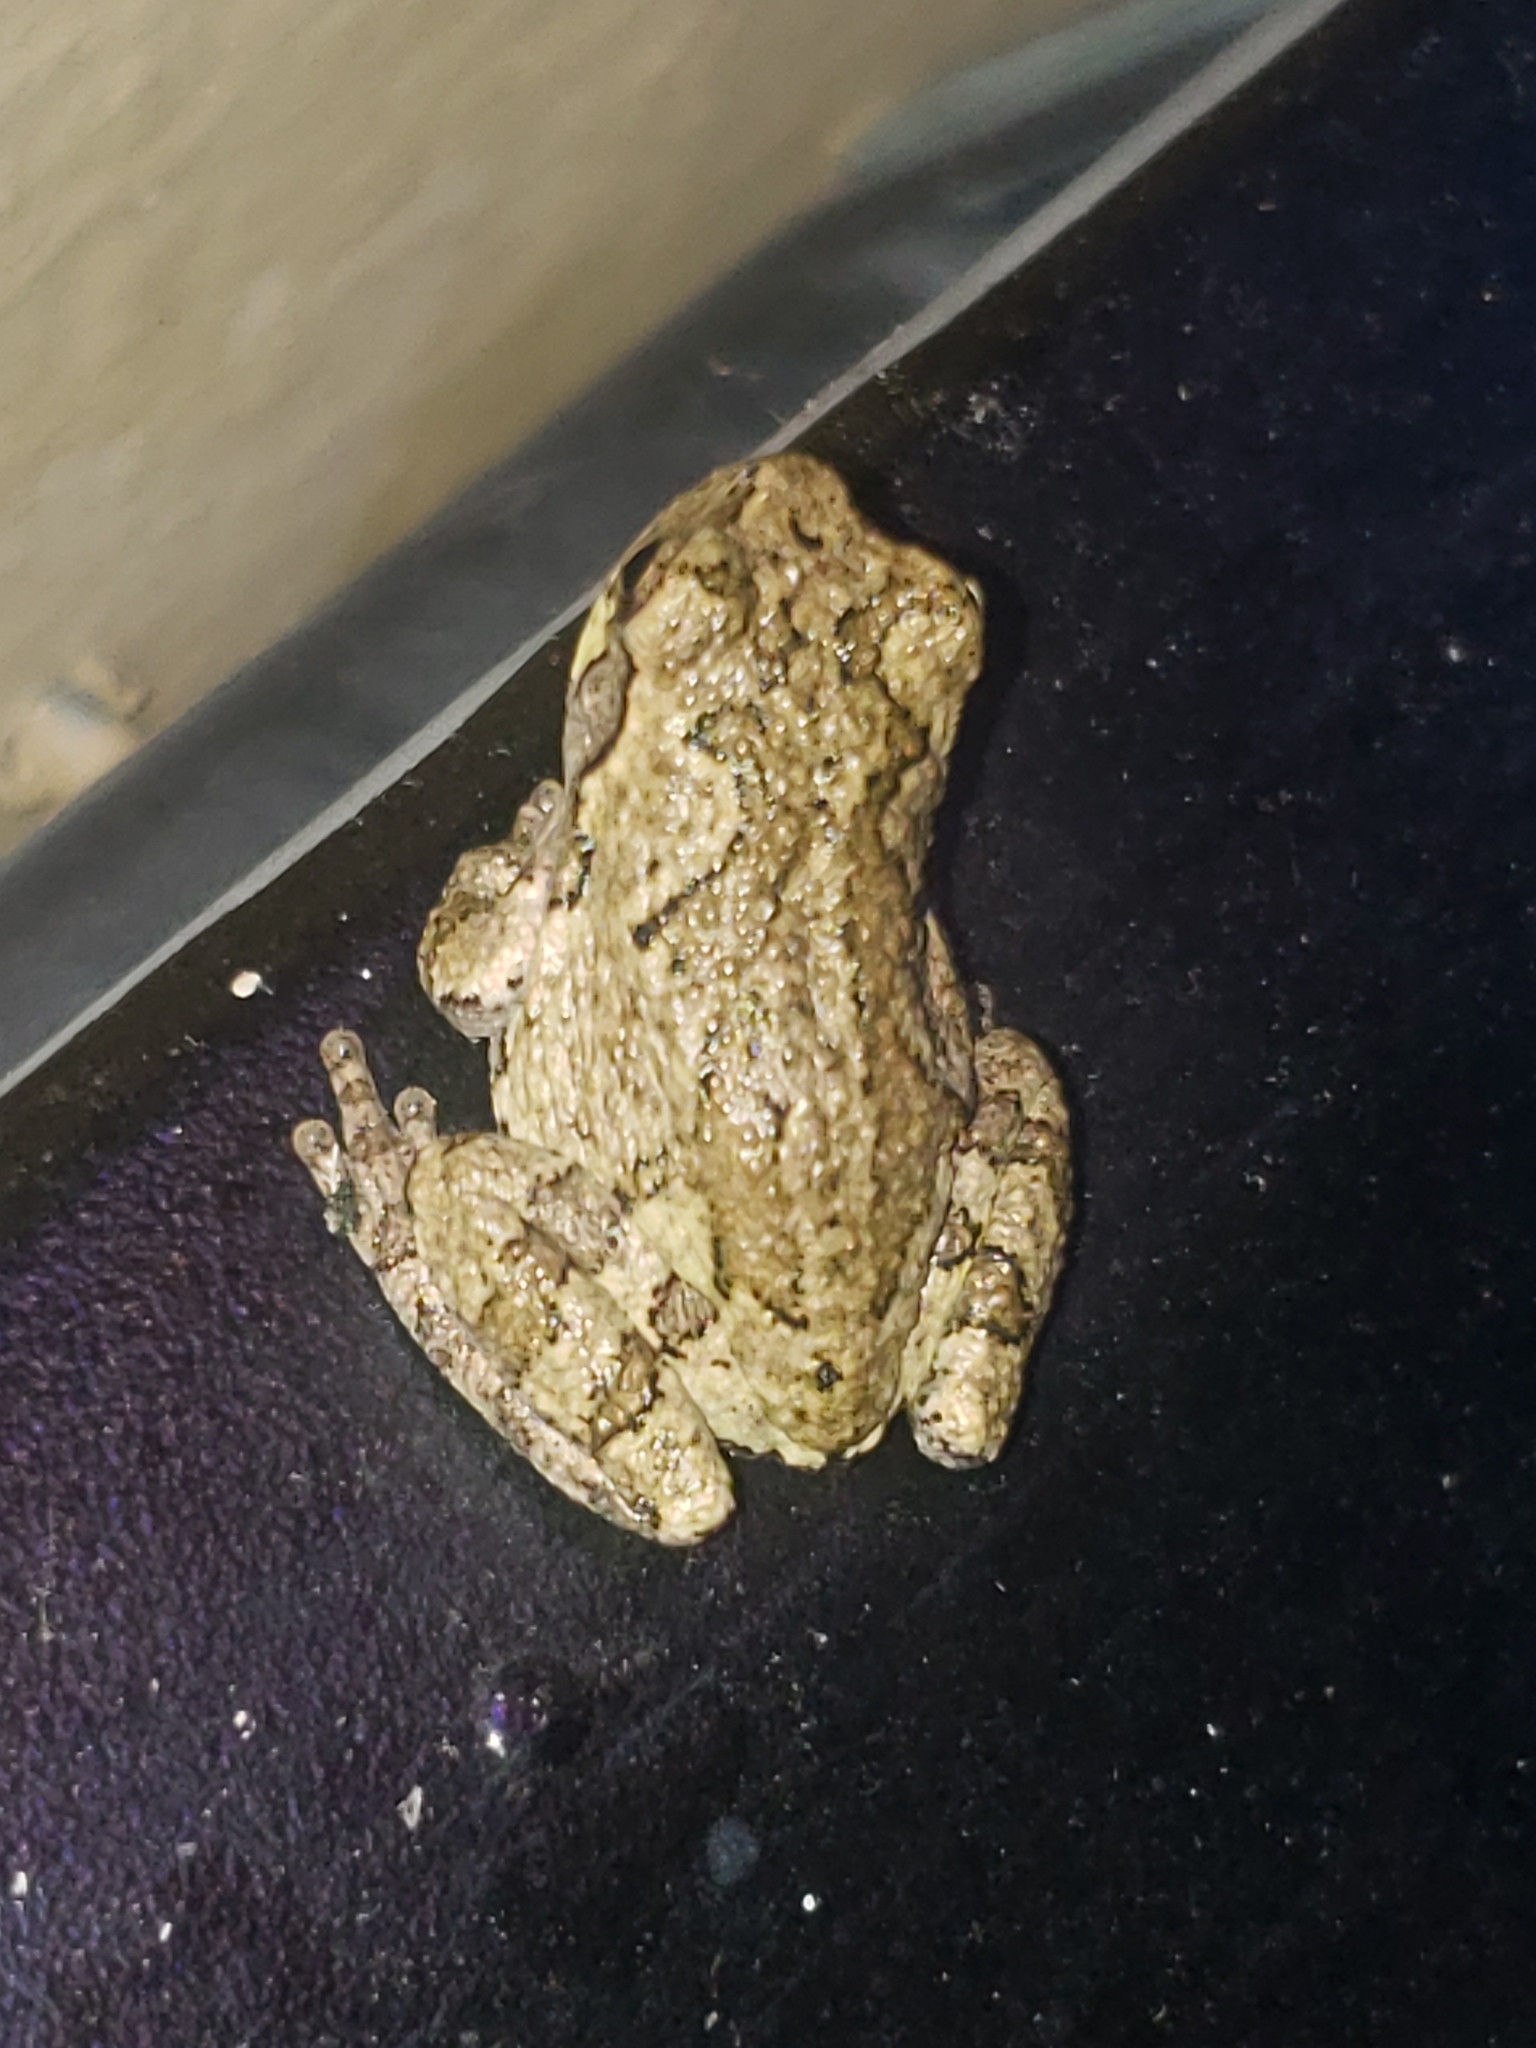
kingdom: Animalia
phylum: Chordata
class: Amphibia
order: Anura
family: Hylidae
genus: Hyla
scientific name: Hyla
